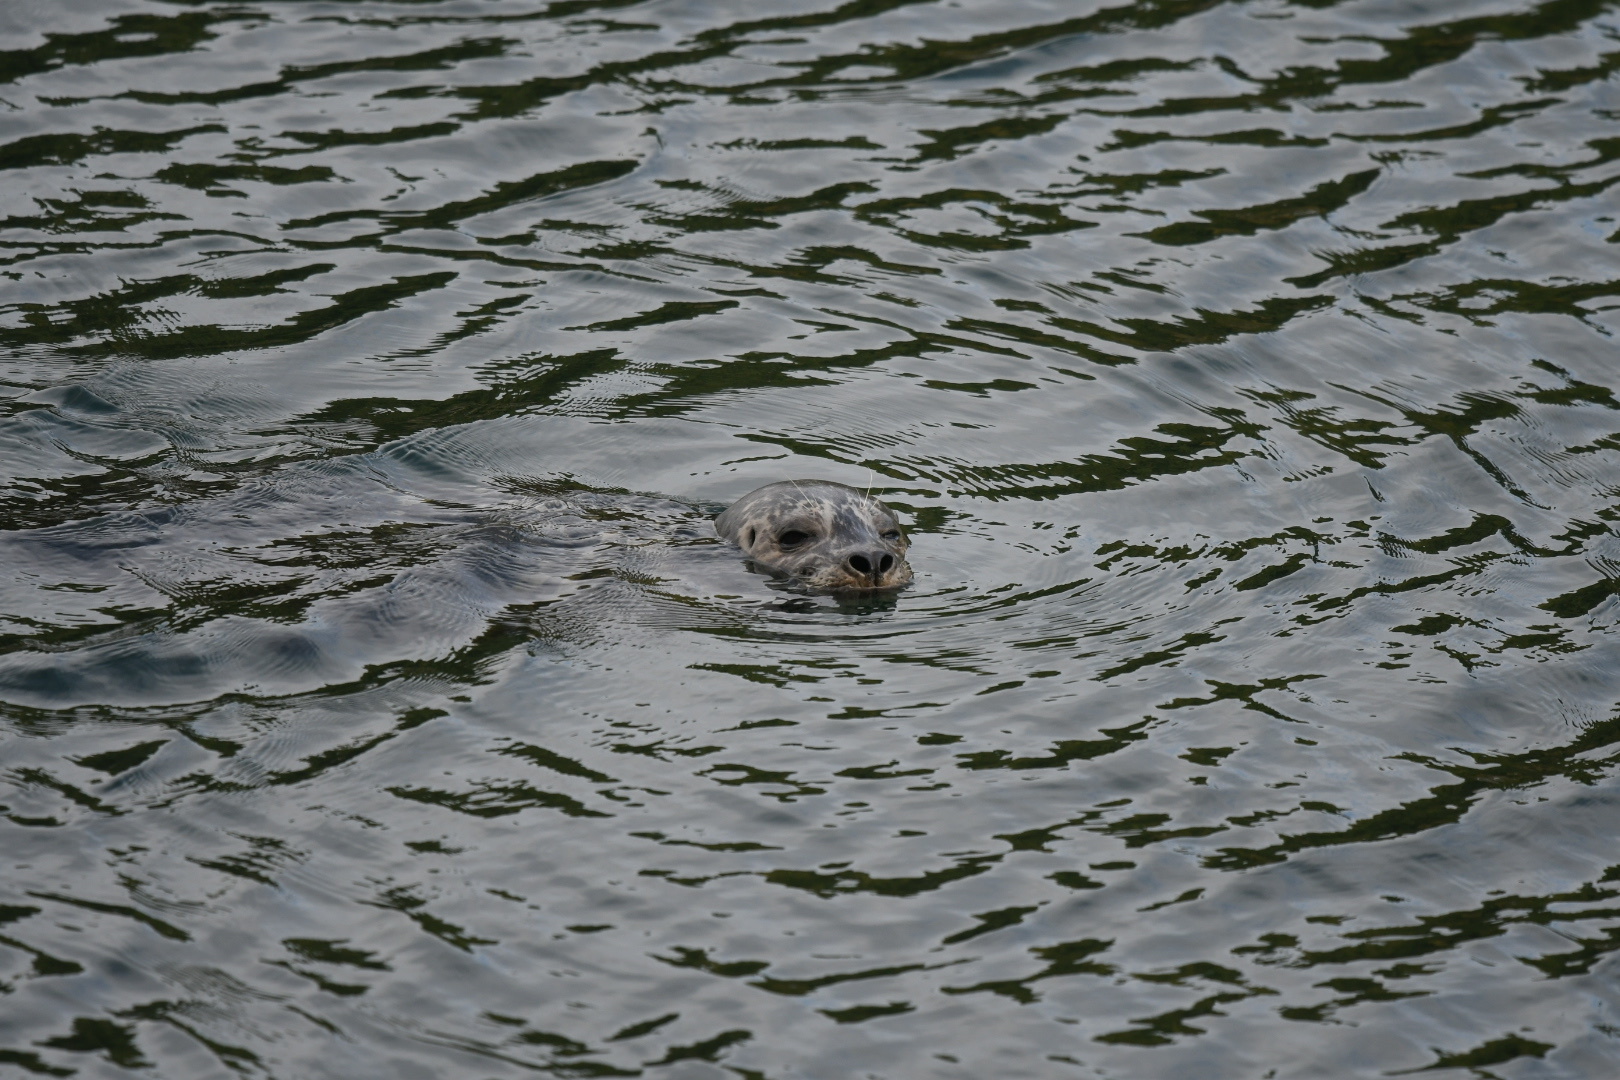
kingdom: Animalia
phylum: Chordata
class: Mammalia
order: Carnivora
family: Phocidae
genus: Phoca
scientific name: Phoca vitulina
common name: Harbor seal
